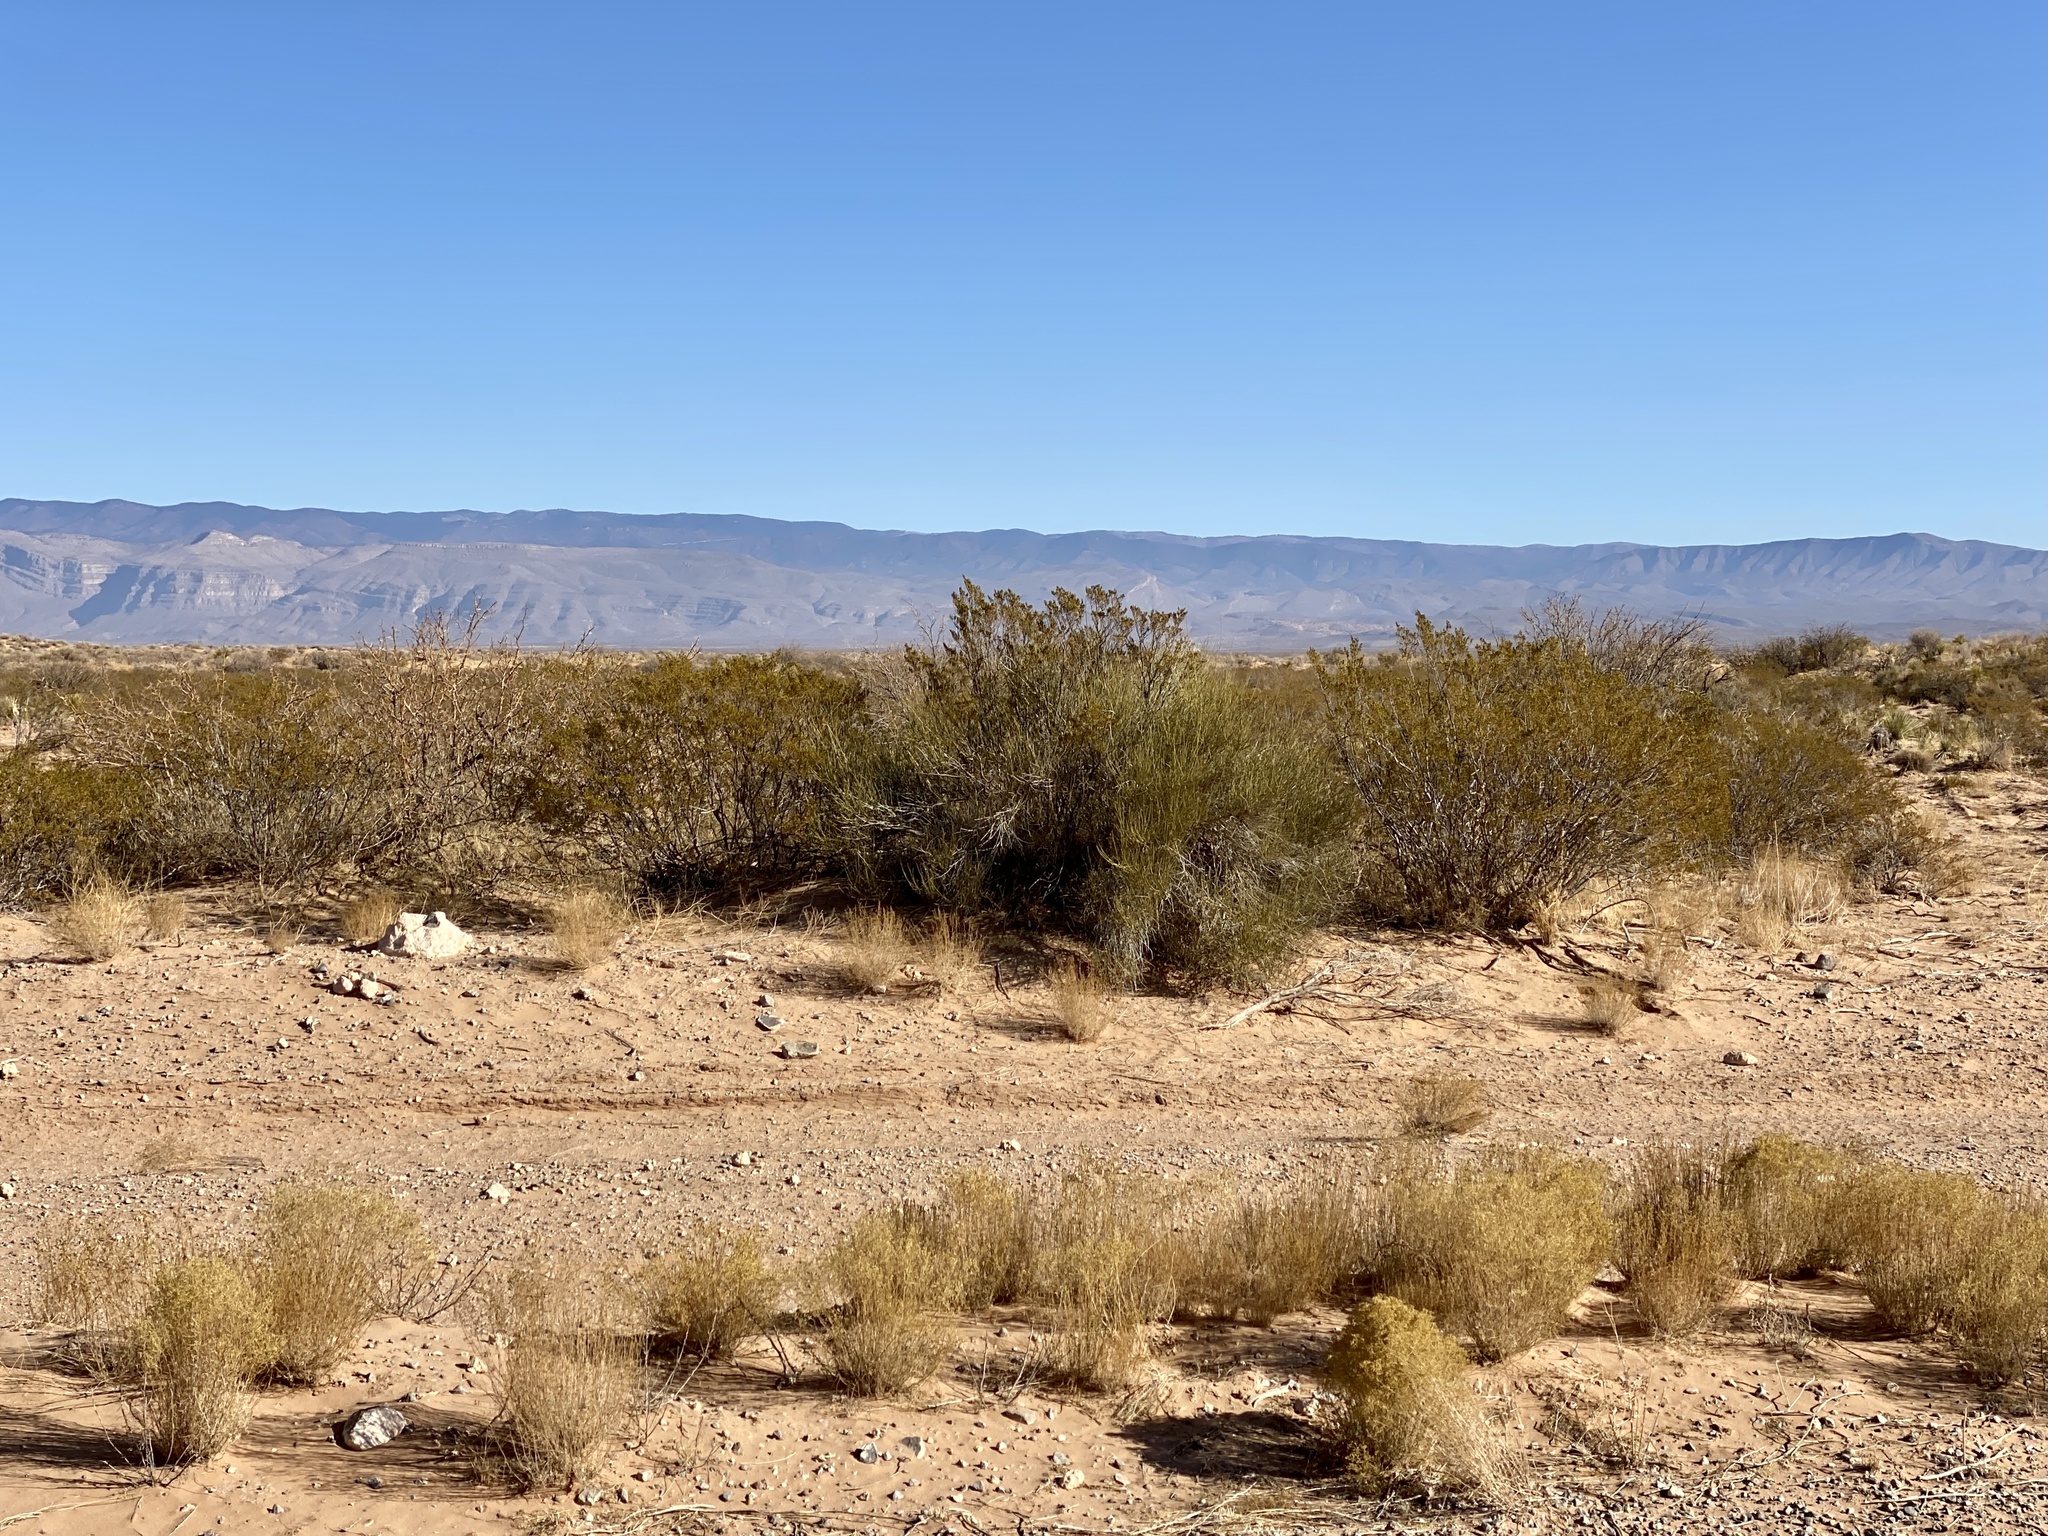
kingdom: Plantae
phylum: Tracheophyta
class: Magnoliopsida
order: Zygophyllales
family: Zygophyllaceae
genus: Larrea
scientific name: Larrea tridentata
